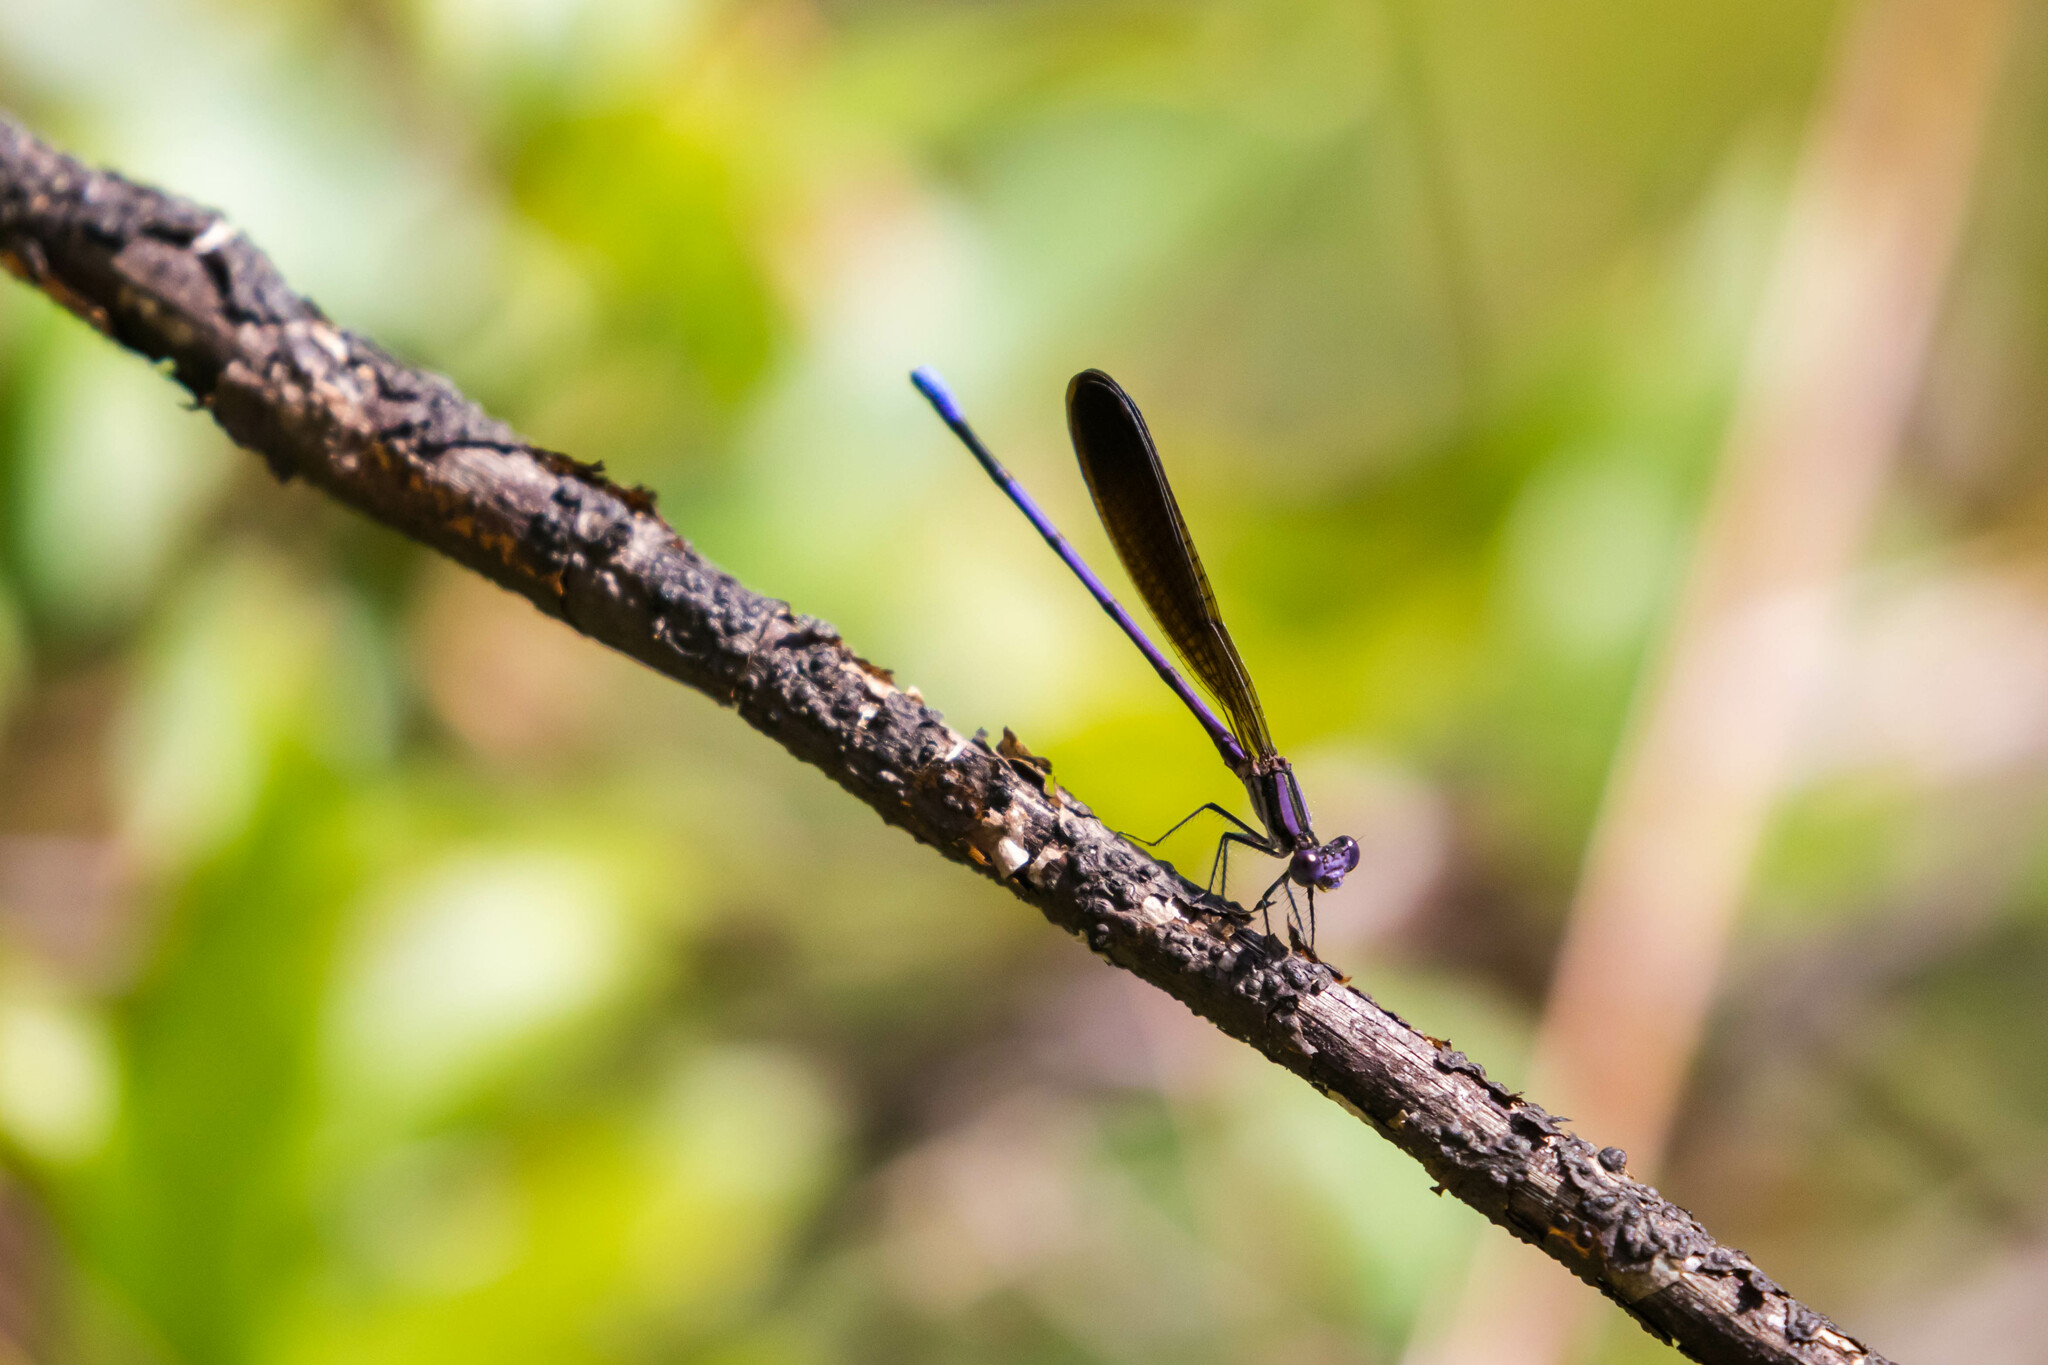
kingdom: Animalia
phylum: Arthropoda
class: Insecta
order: Odonata
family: Coenagrionidae
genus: Argia
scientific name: Argia fumipennis
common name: Variable dancer
